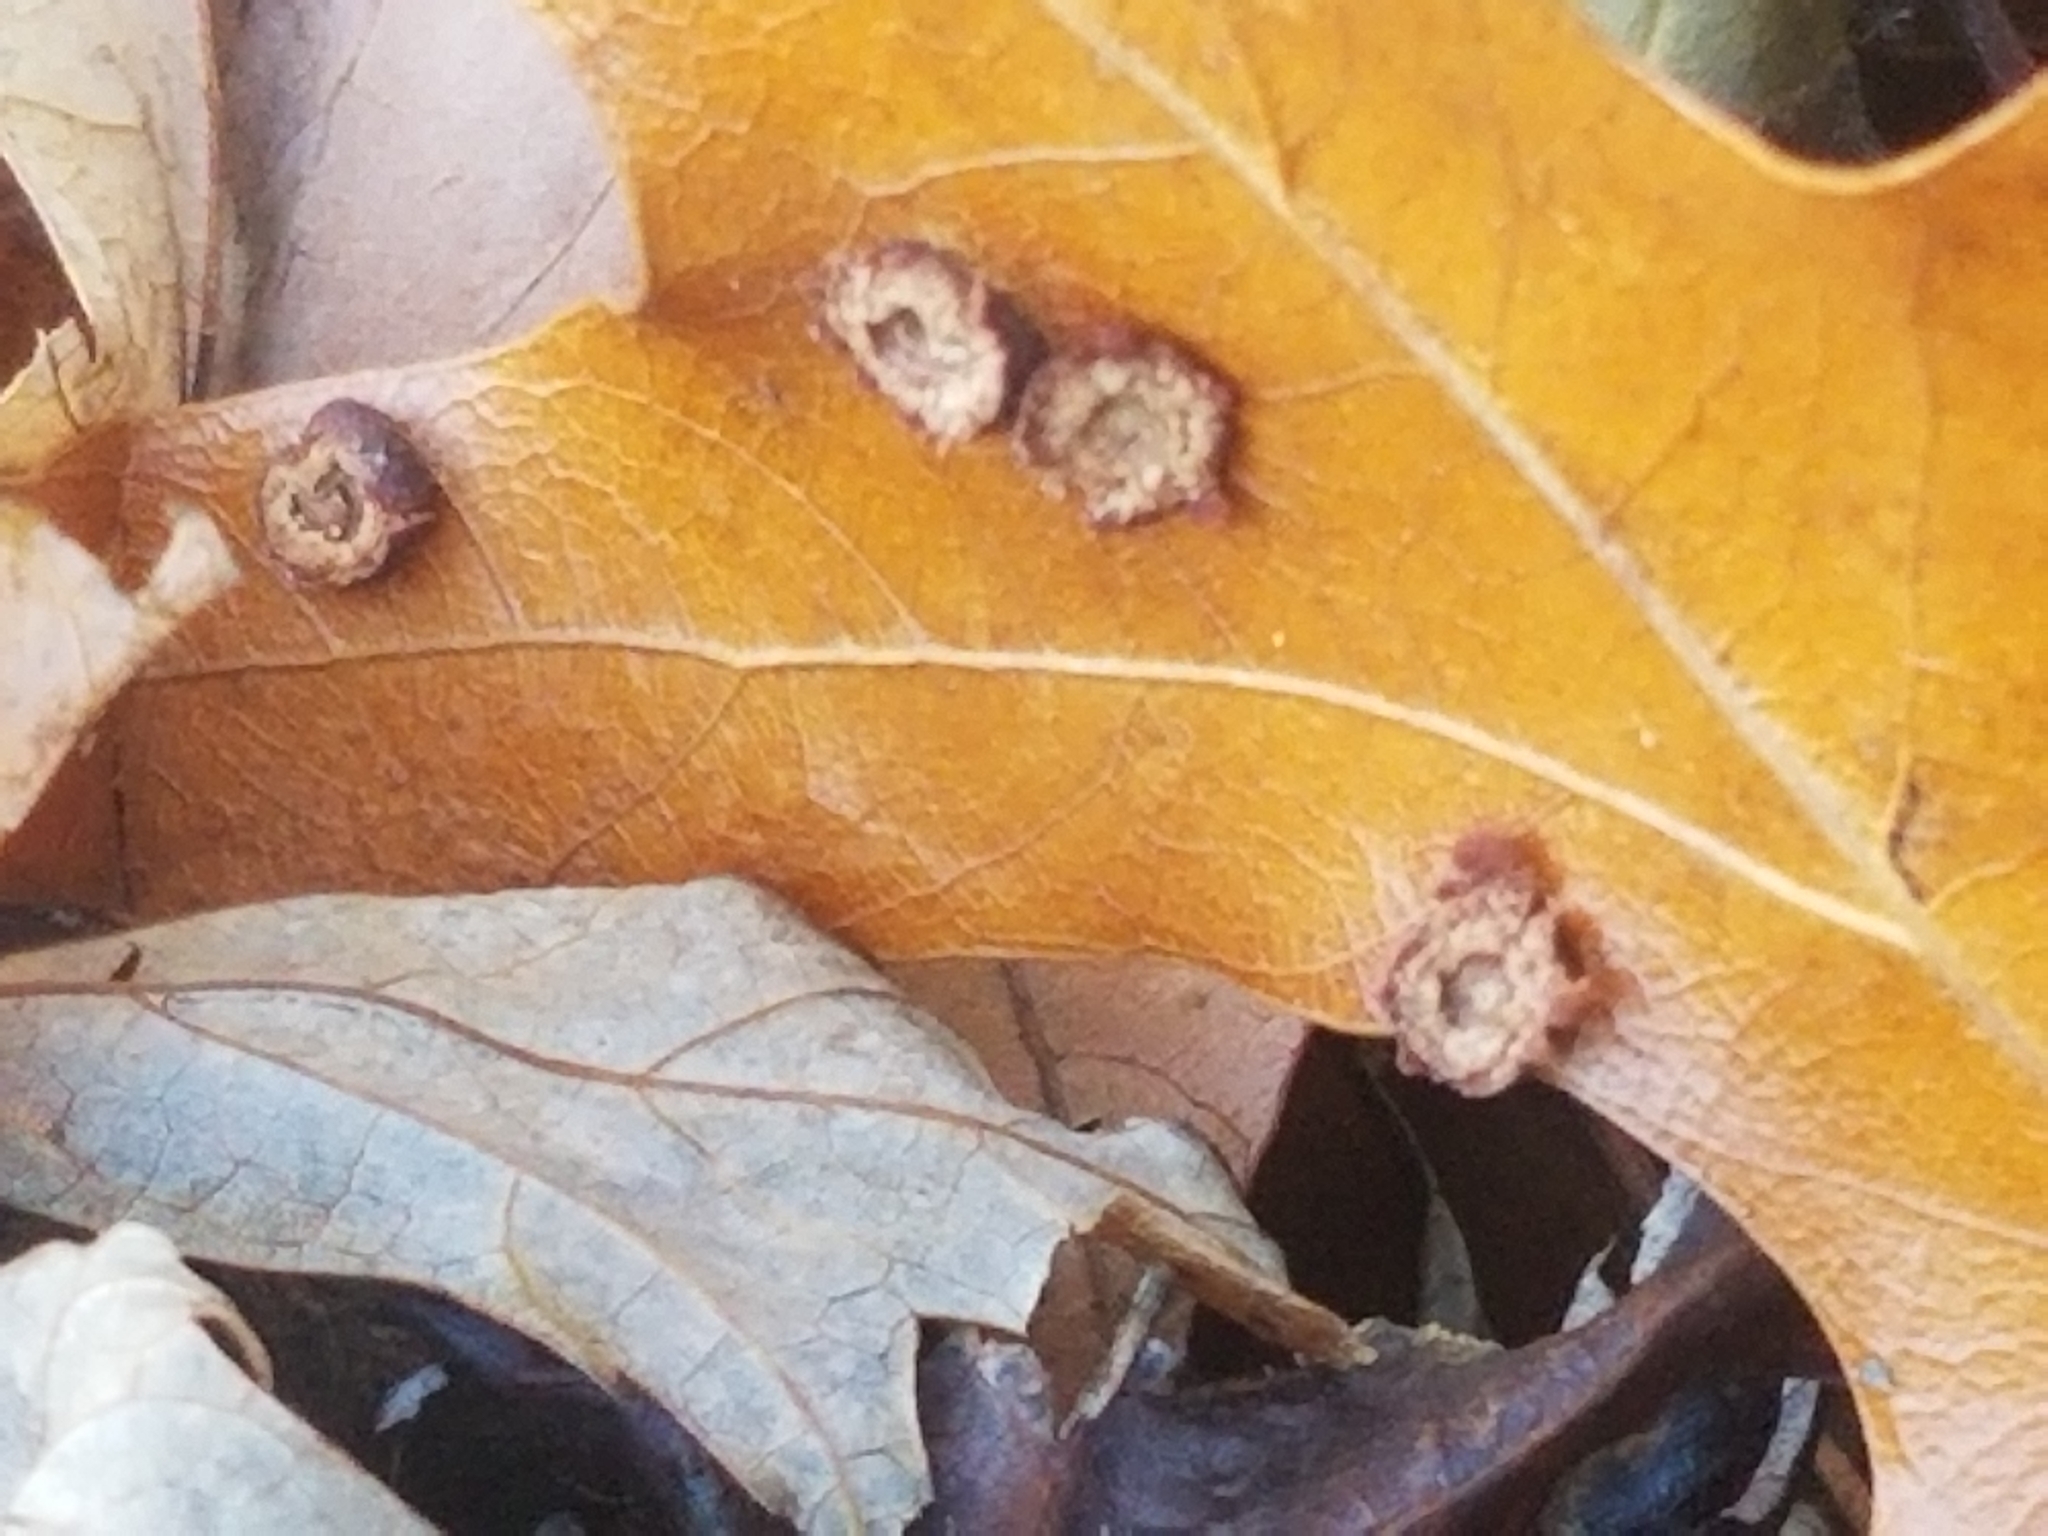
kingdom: Animalia
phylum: Arthropoda
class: Insecta
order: Diptera
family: Cecidomyiidae
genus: Polystepha
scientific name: Polystepha pilulae
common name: Oak leaf gall midge
